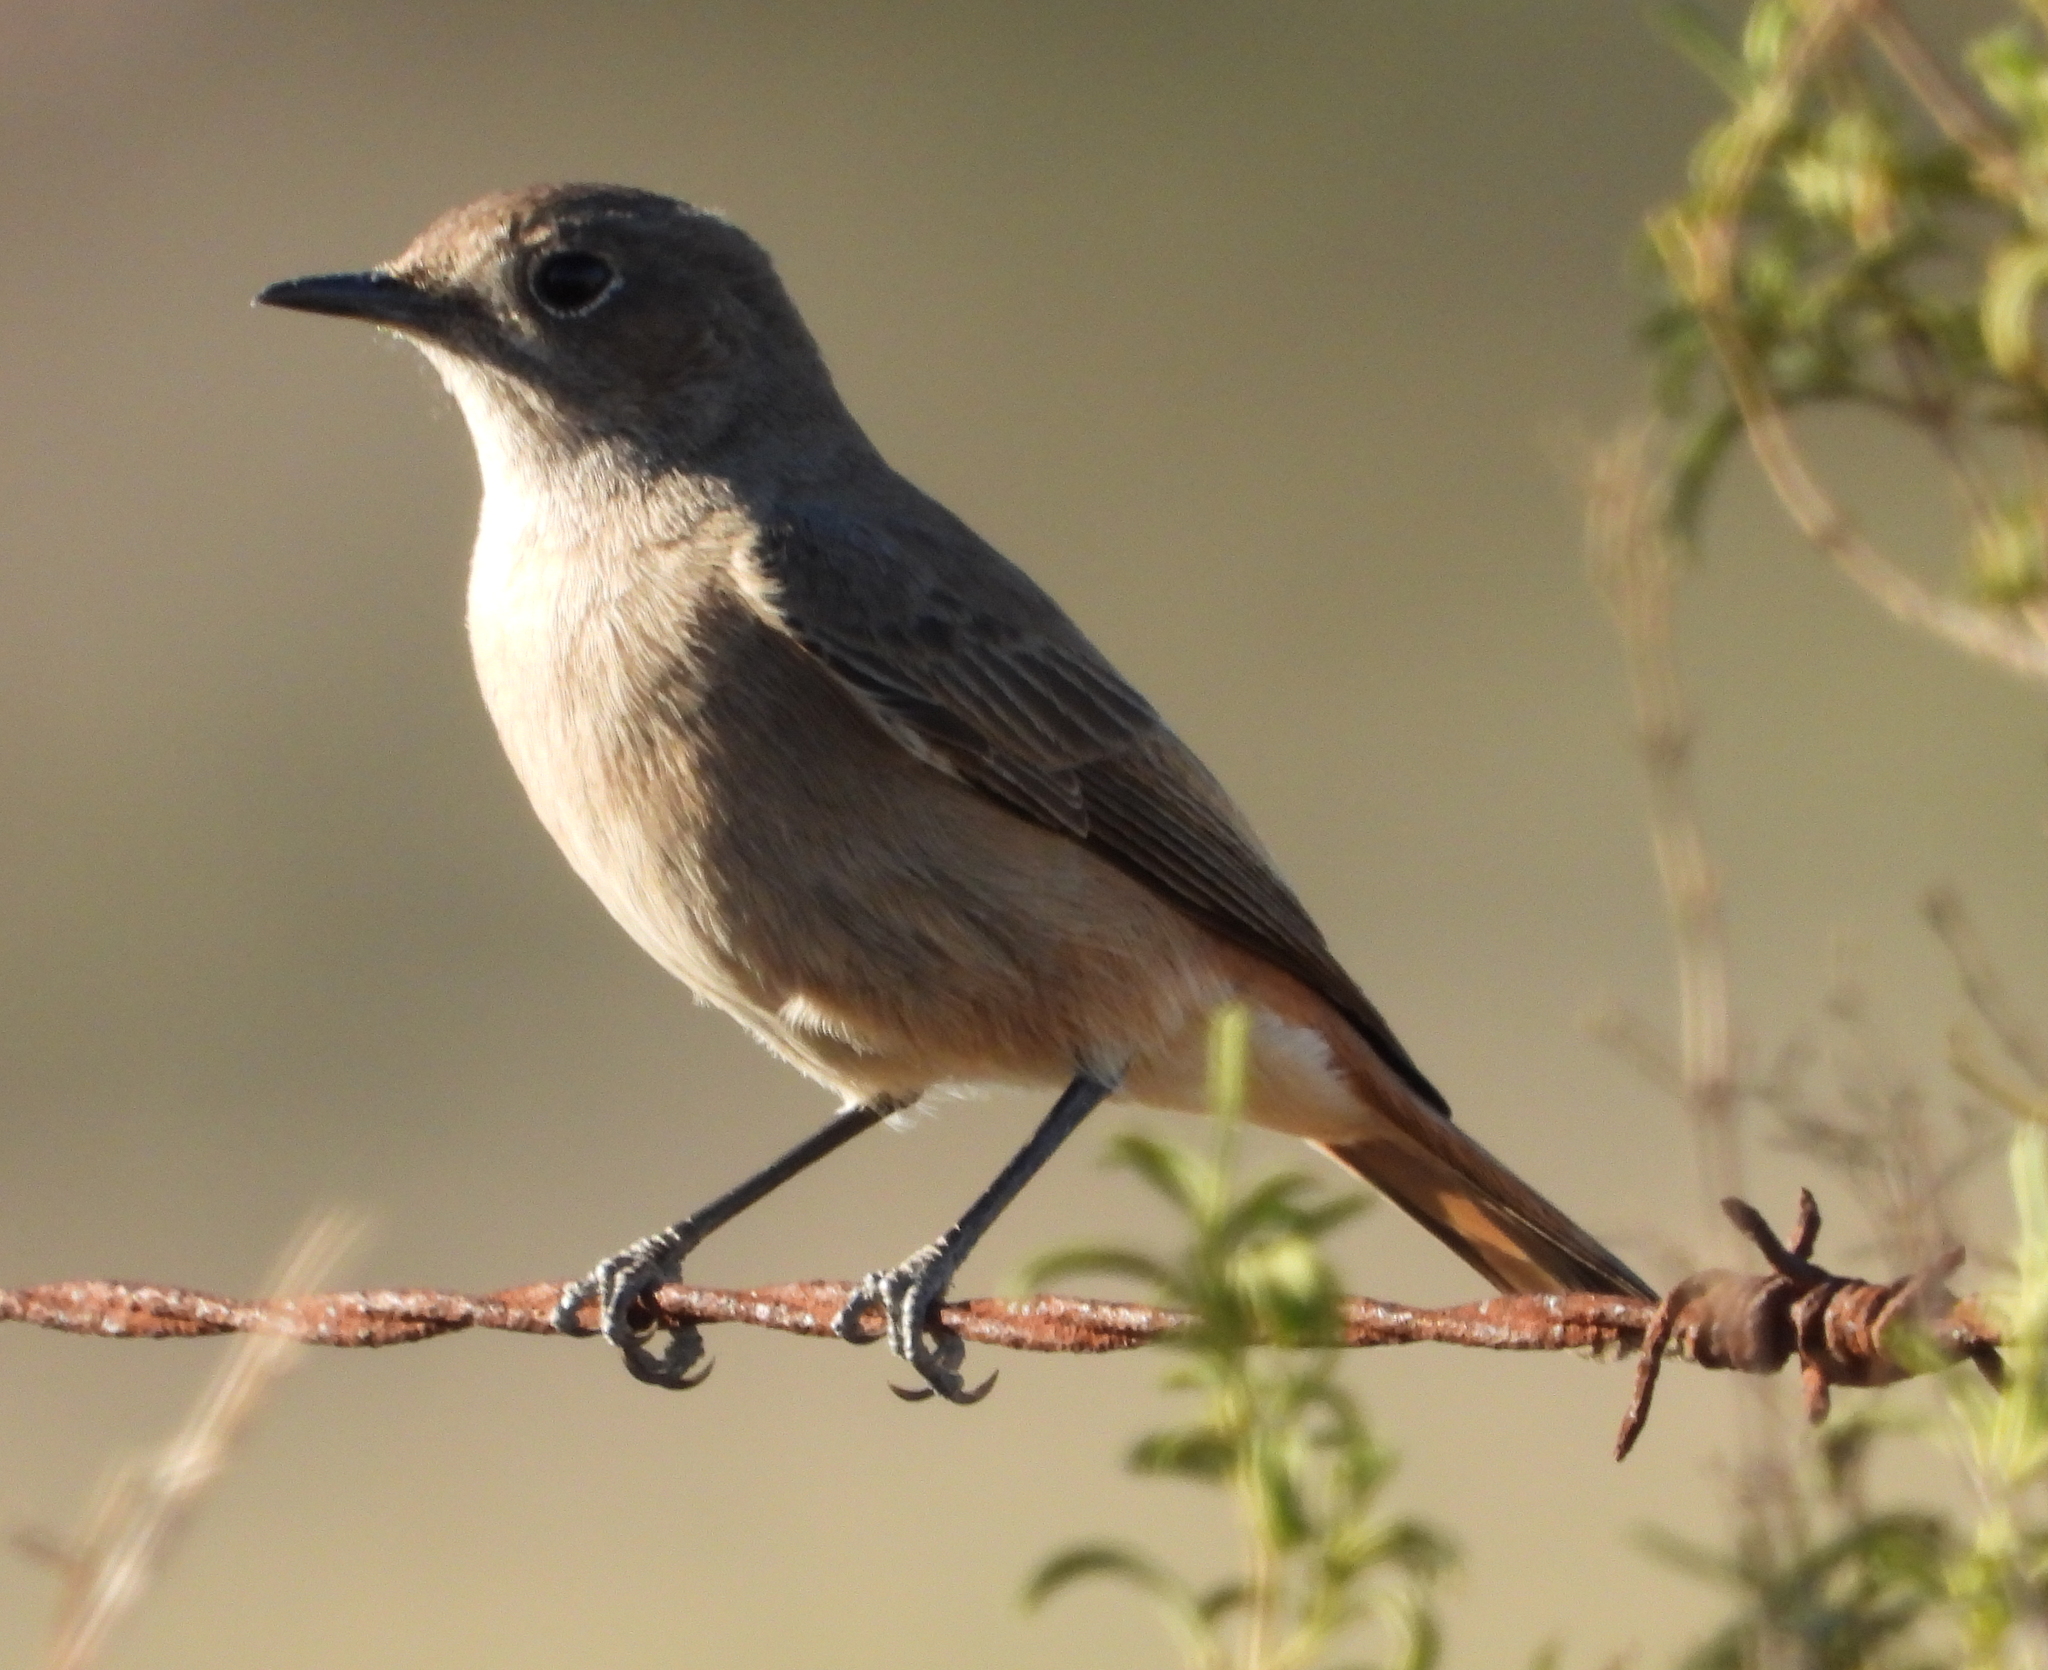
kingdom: Animalia
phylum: Chordata
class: Aves
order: Passeriformes
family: Muscicapidae
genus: Oenanthe
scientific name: Oenanthe familiaris
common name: Familiar chat
